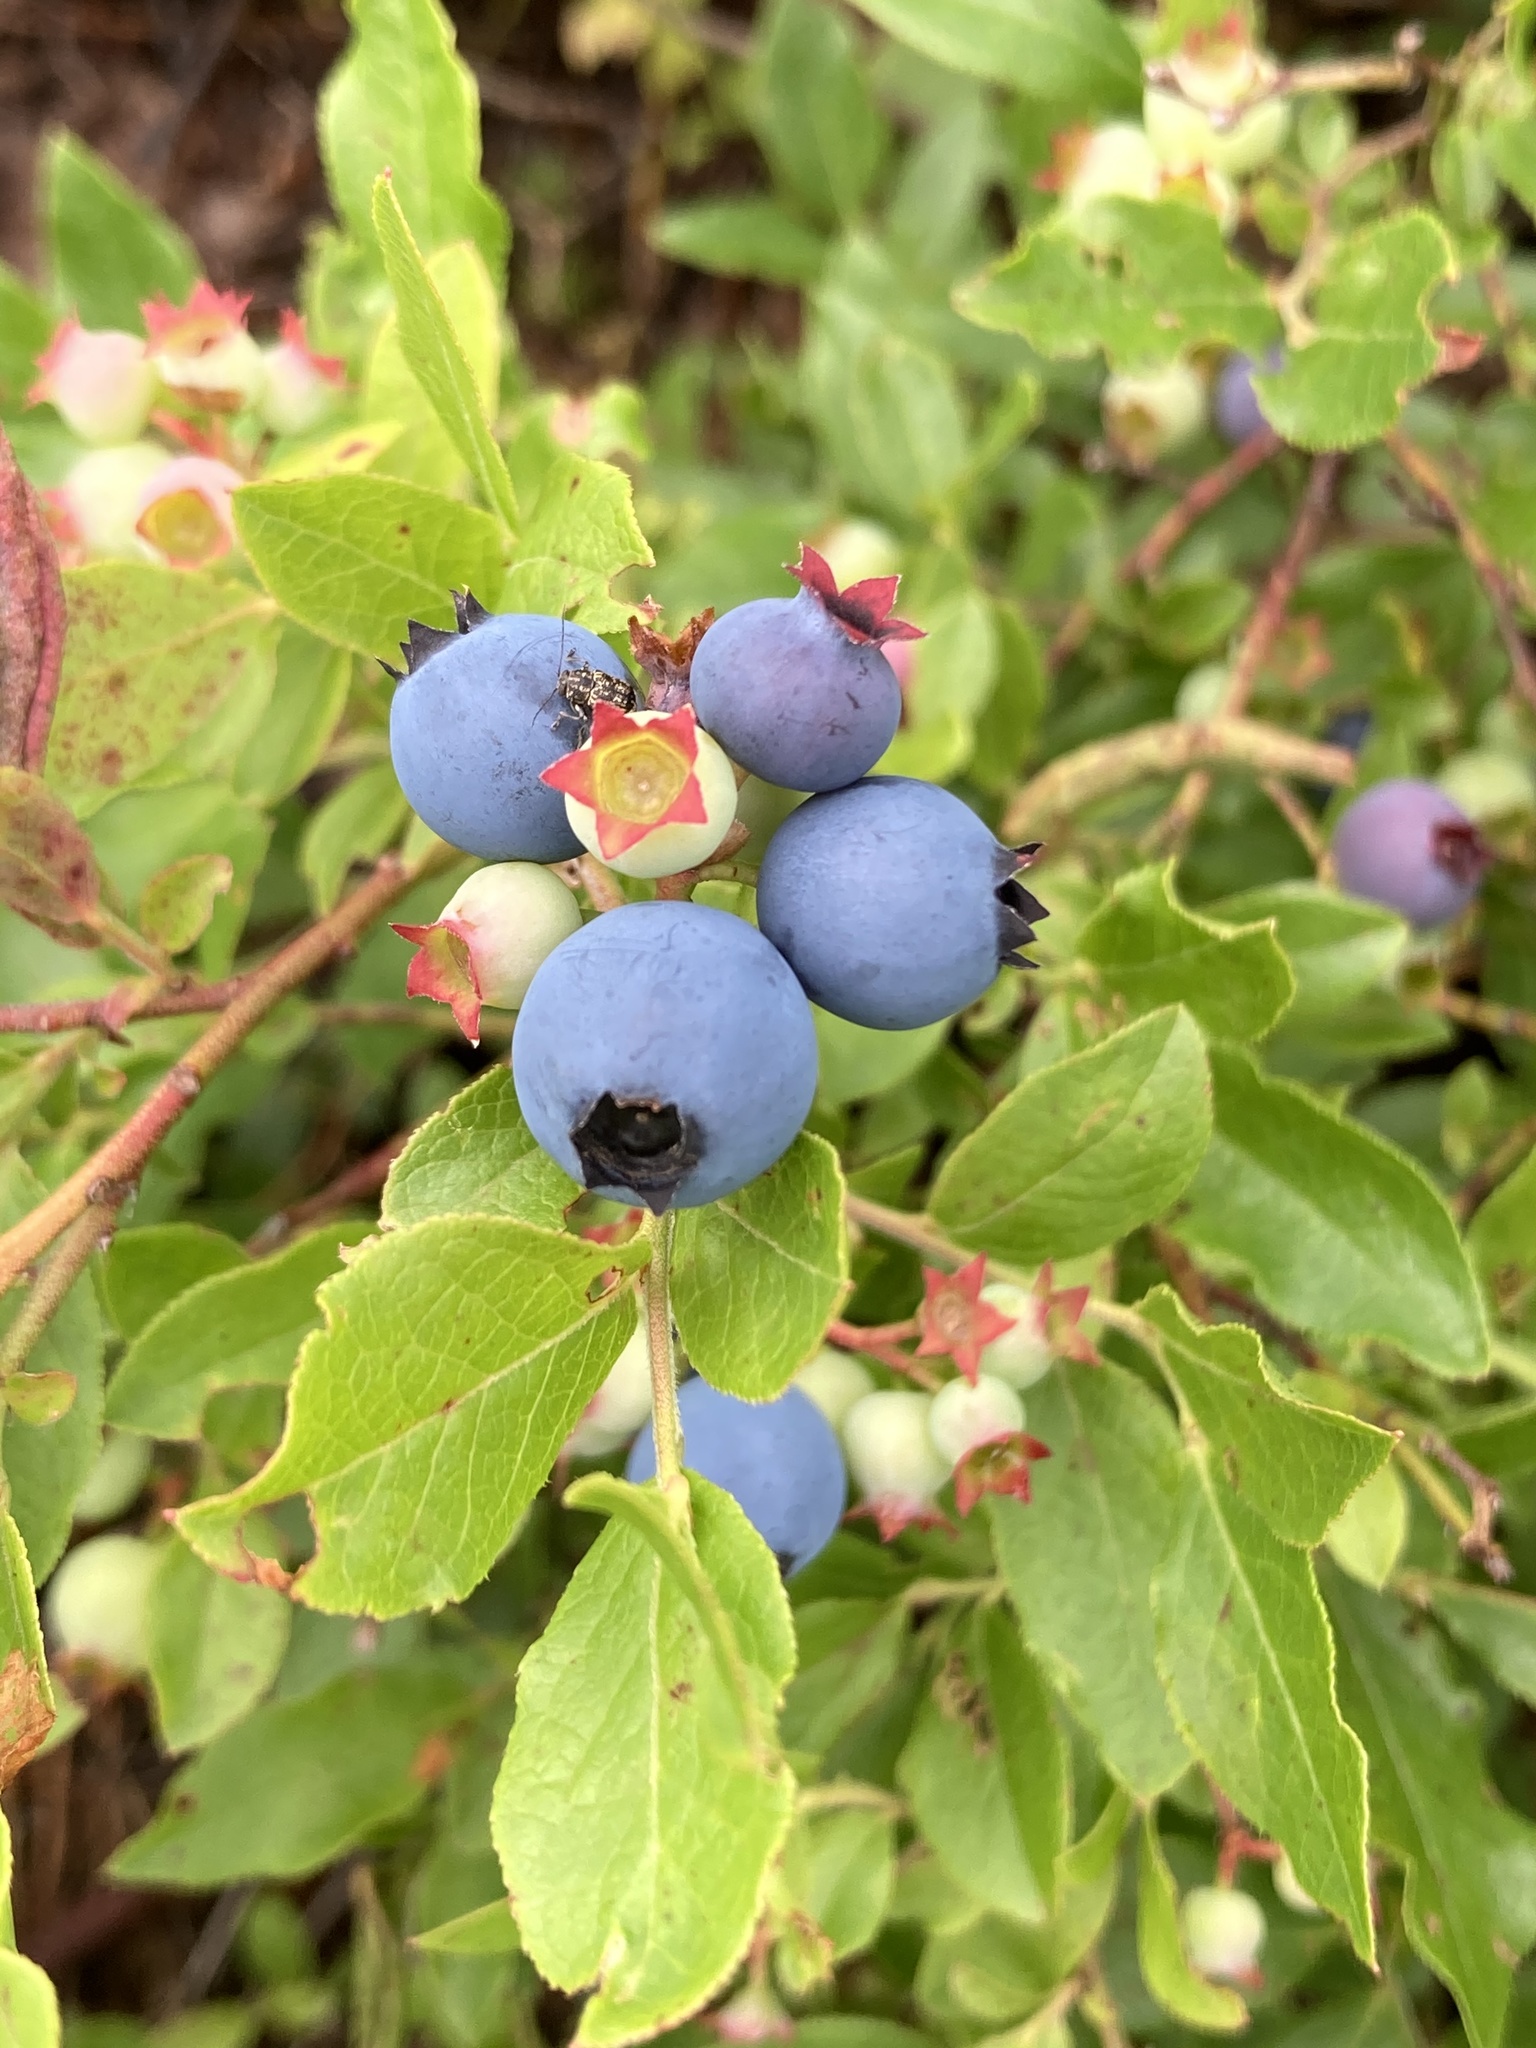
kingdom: Plantae
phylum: Tracheophyta
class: Magnoliopsida
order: Ericales
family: Ericaceae
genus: Vaccinium
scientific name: Vaccinium angustifolium
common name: Early lowbush blueberry
